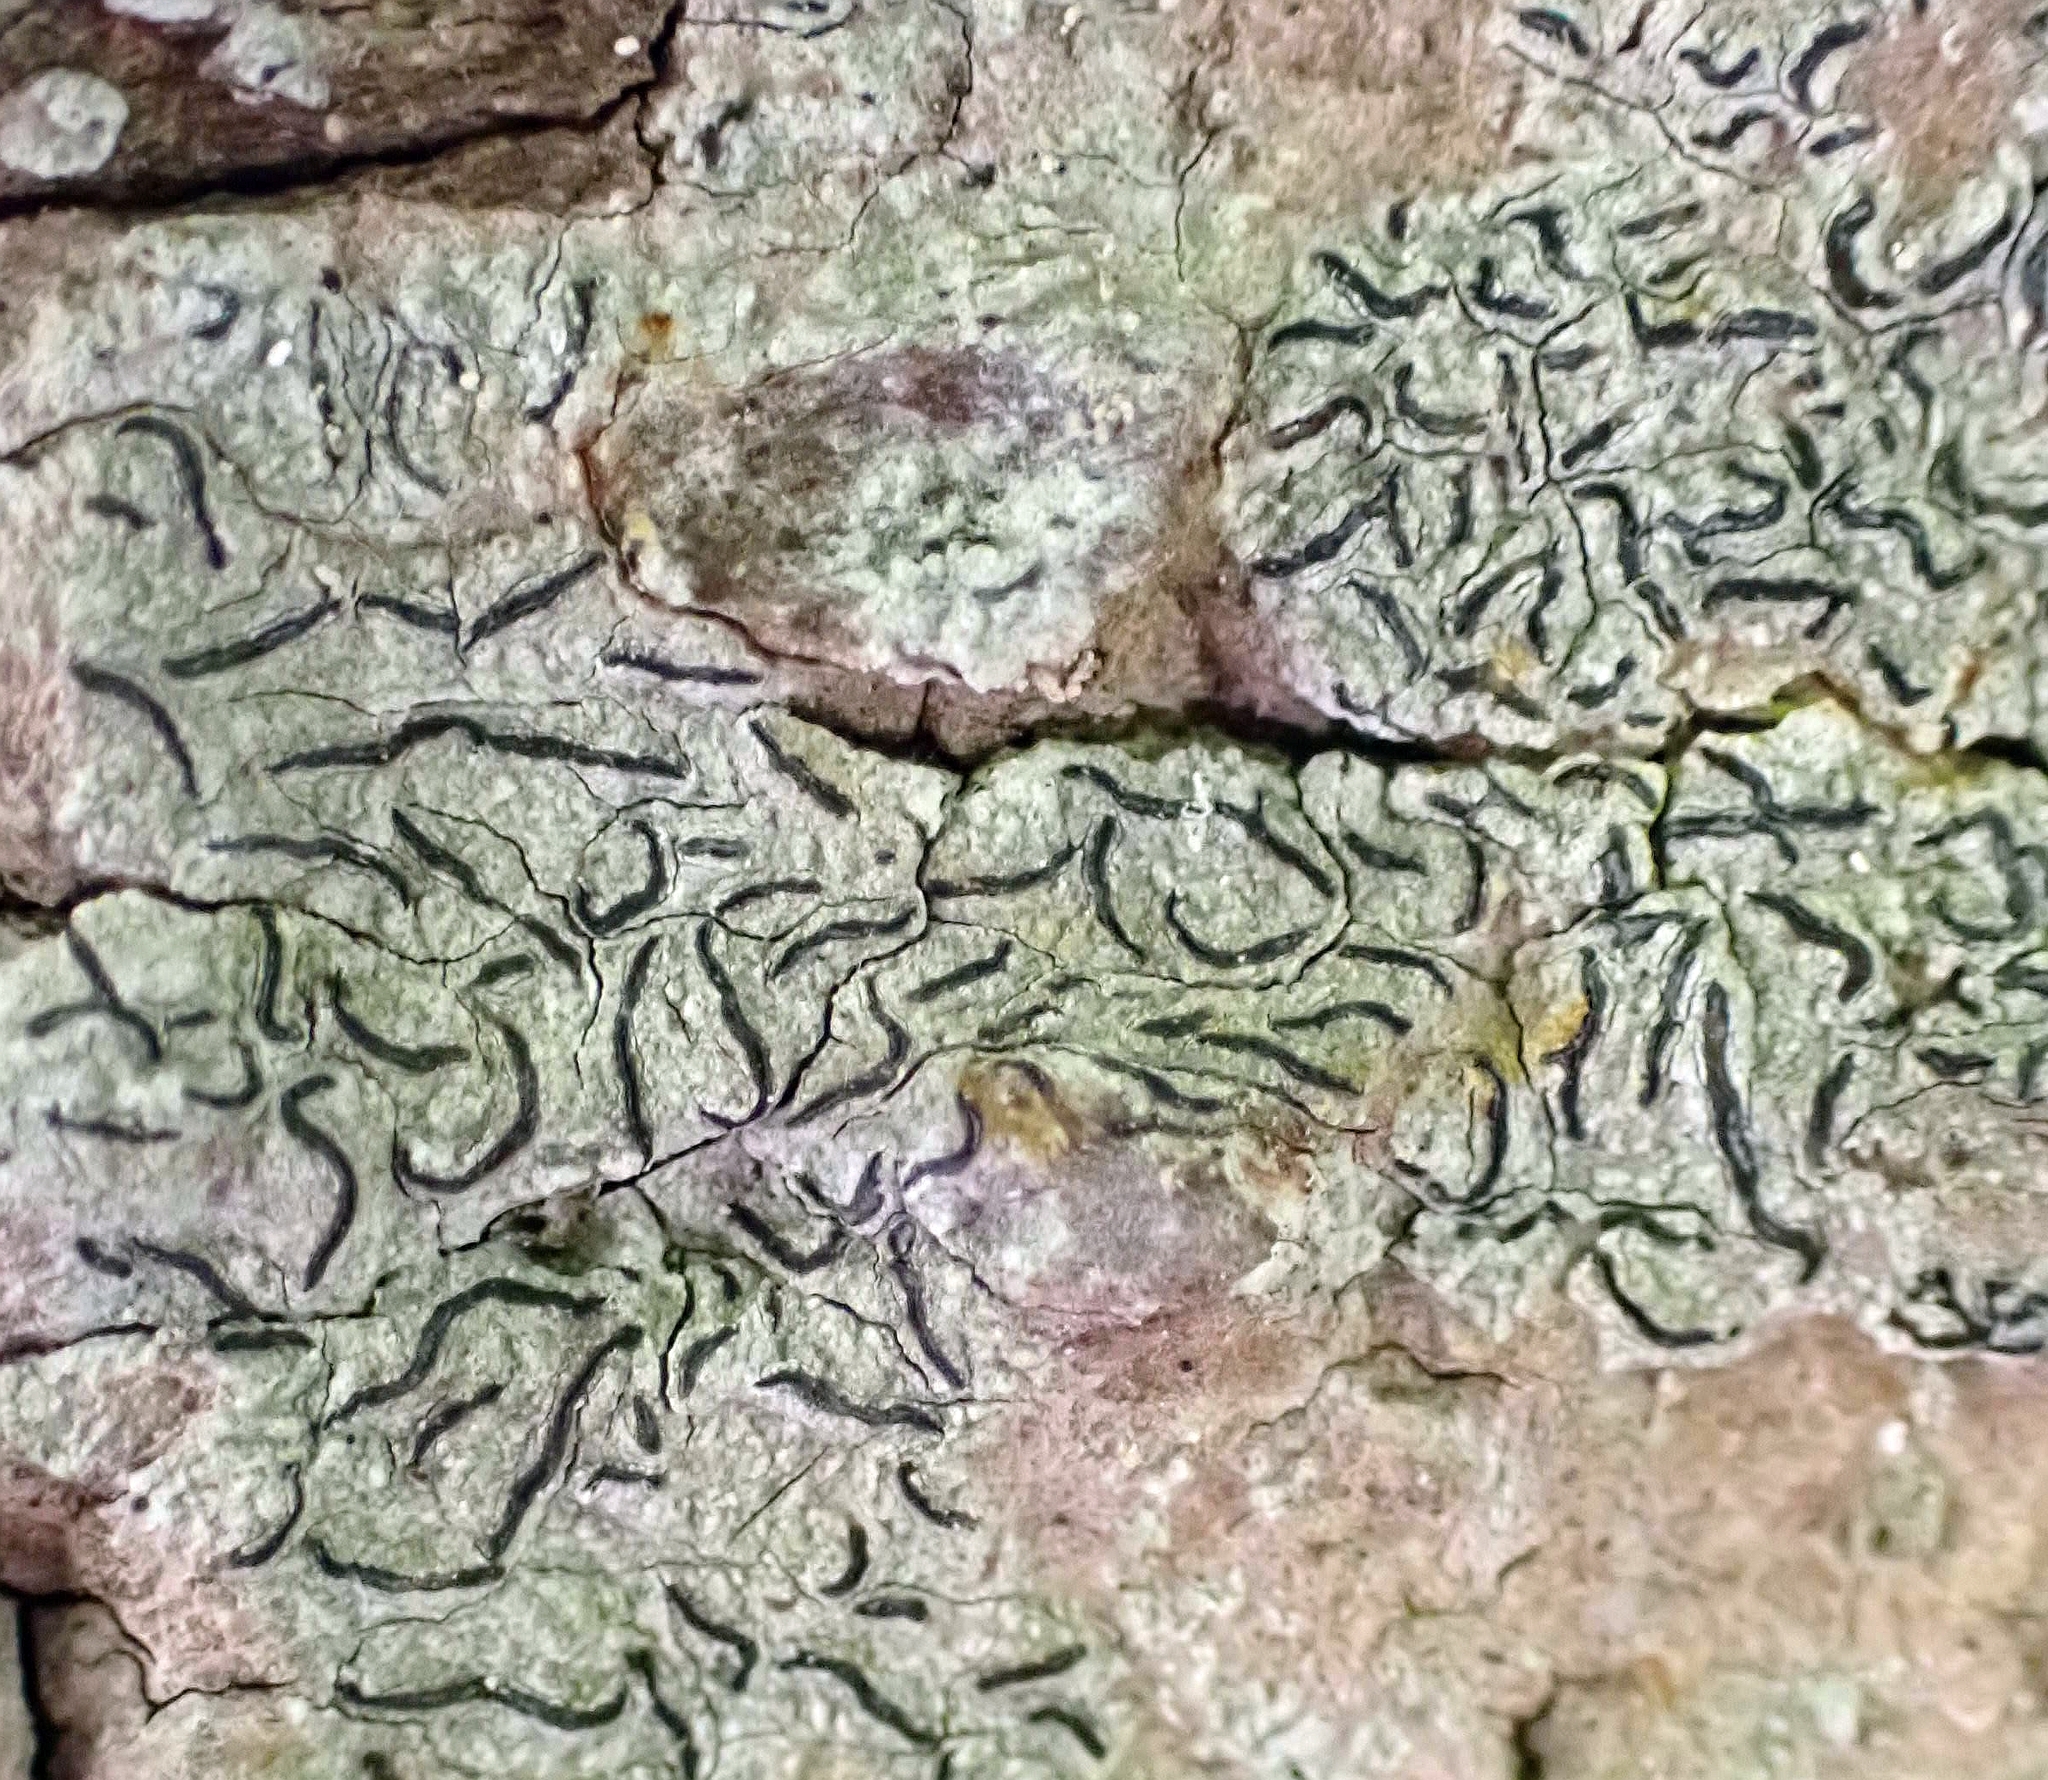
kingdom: Fungi
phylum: Ascomycota
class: Lecanoromycetes
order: Ostropales
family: Graphidaceae
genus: Graphis
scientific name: Graphis scripta
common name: Script lichen
